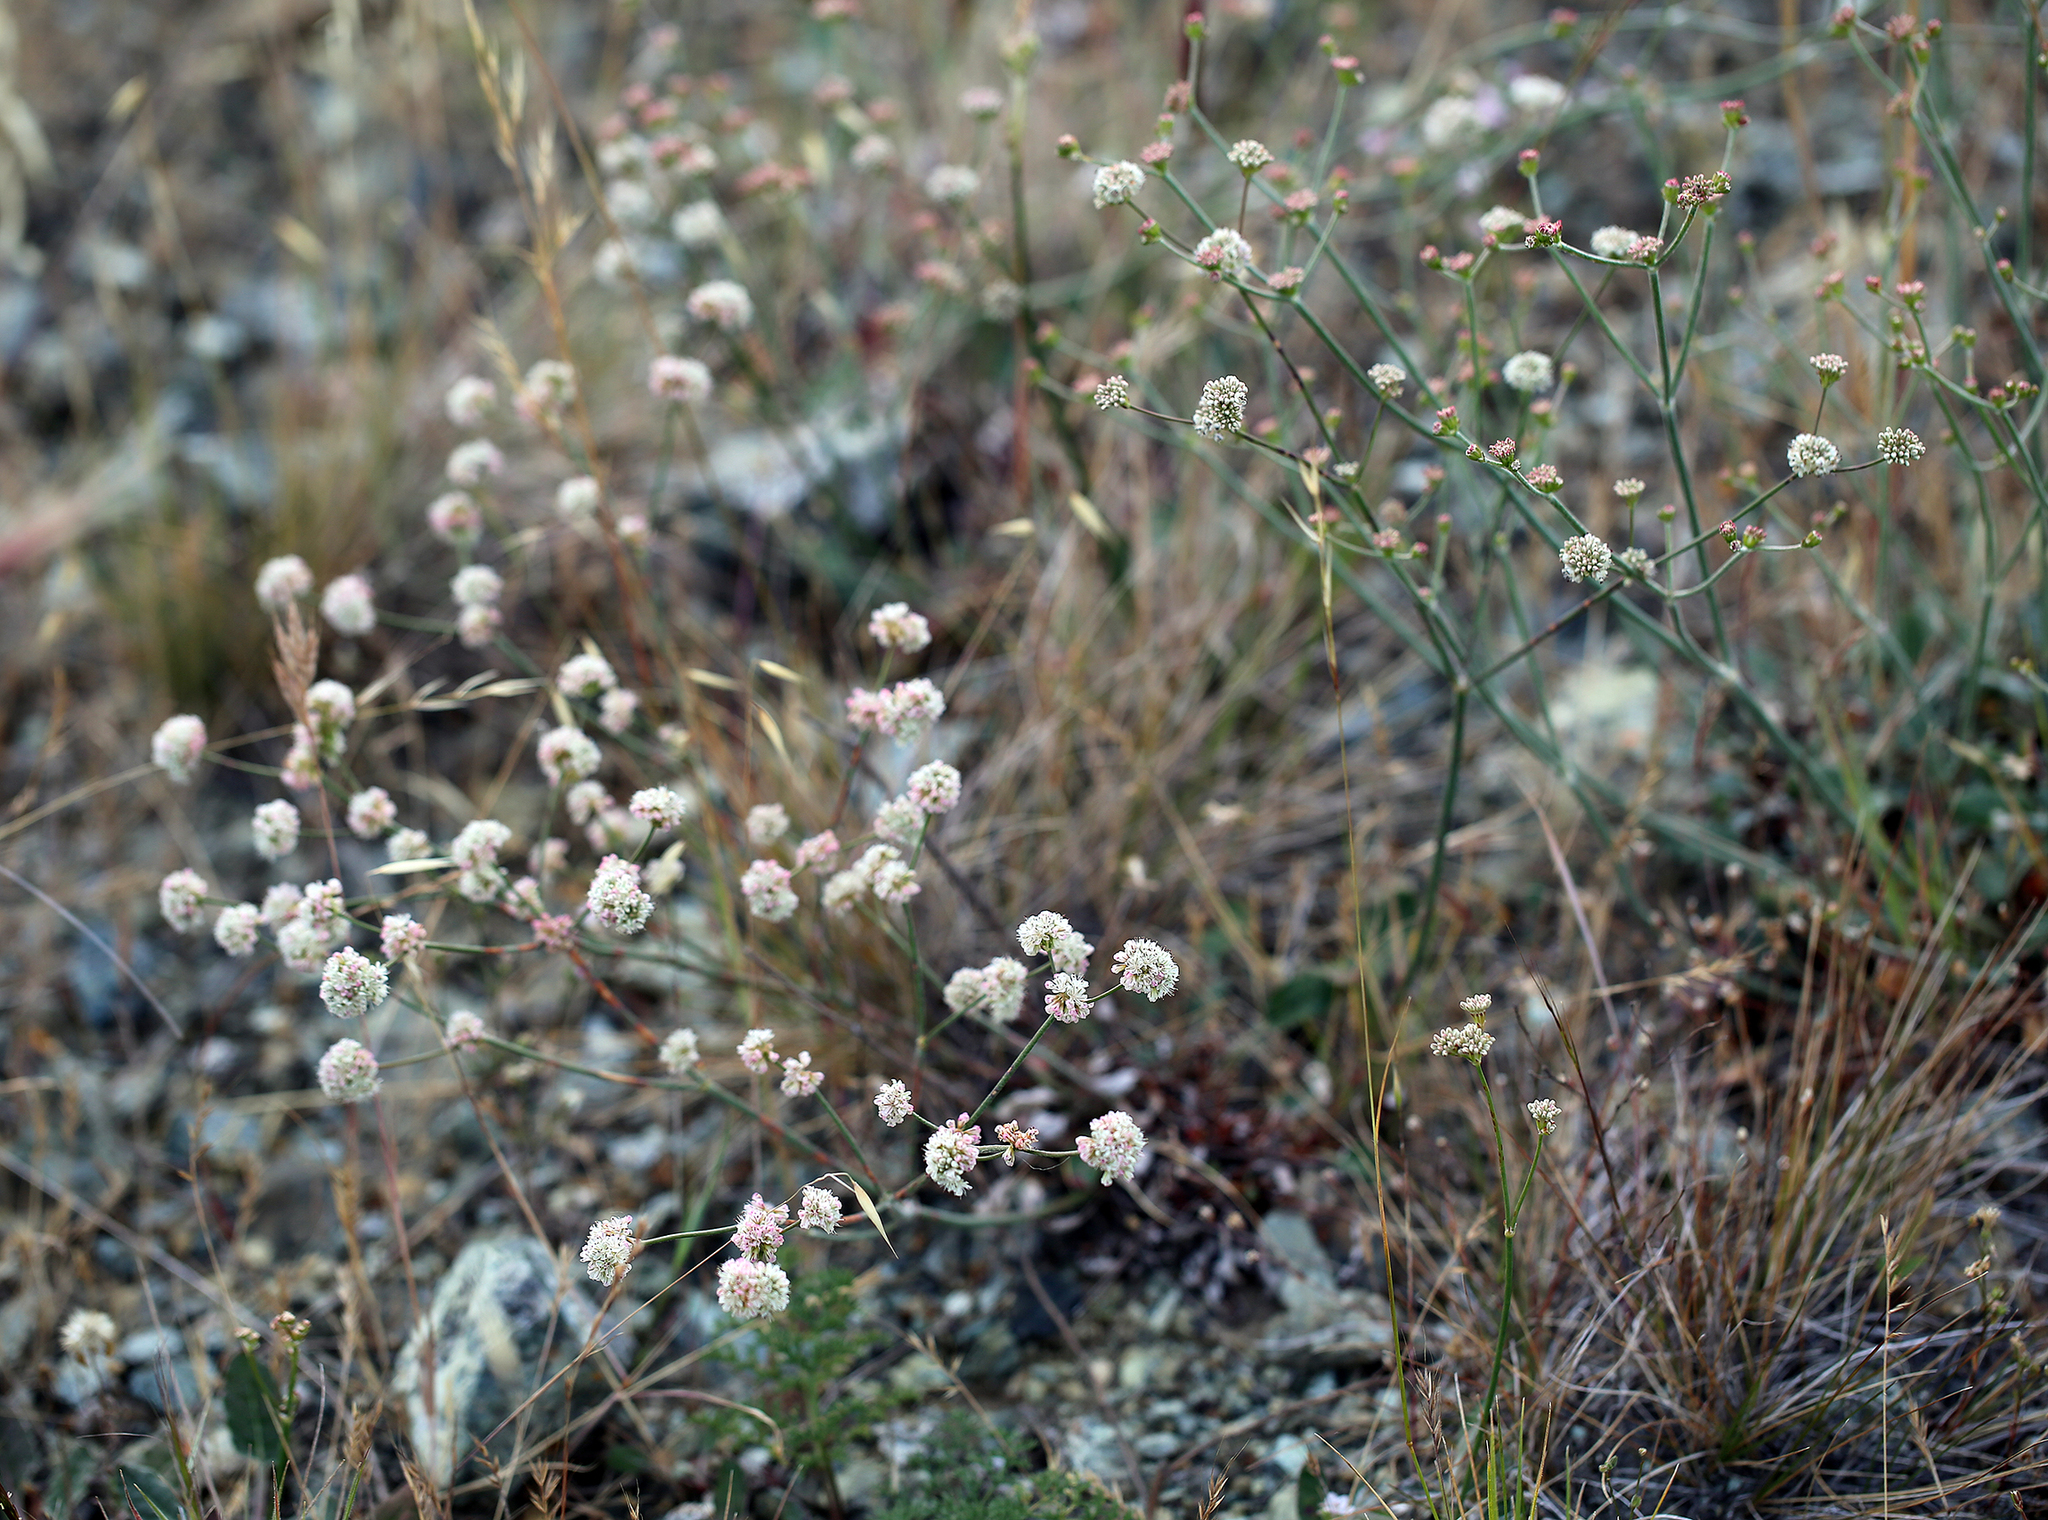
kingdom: Plantae
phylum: Tracheophyta
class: Magnoliopsida
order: Caryophyllales
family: Polygonaceae
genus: Eriogonum
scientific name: Eriogonum nudum
